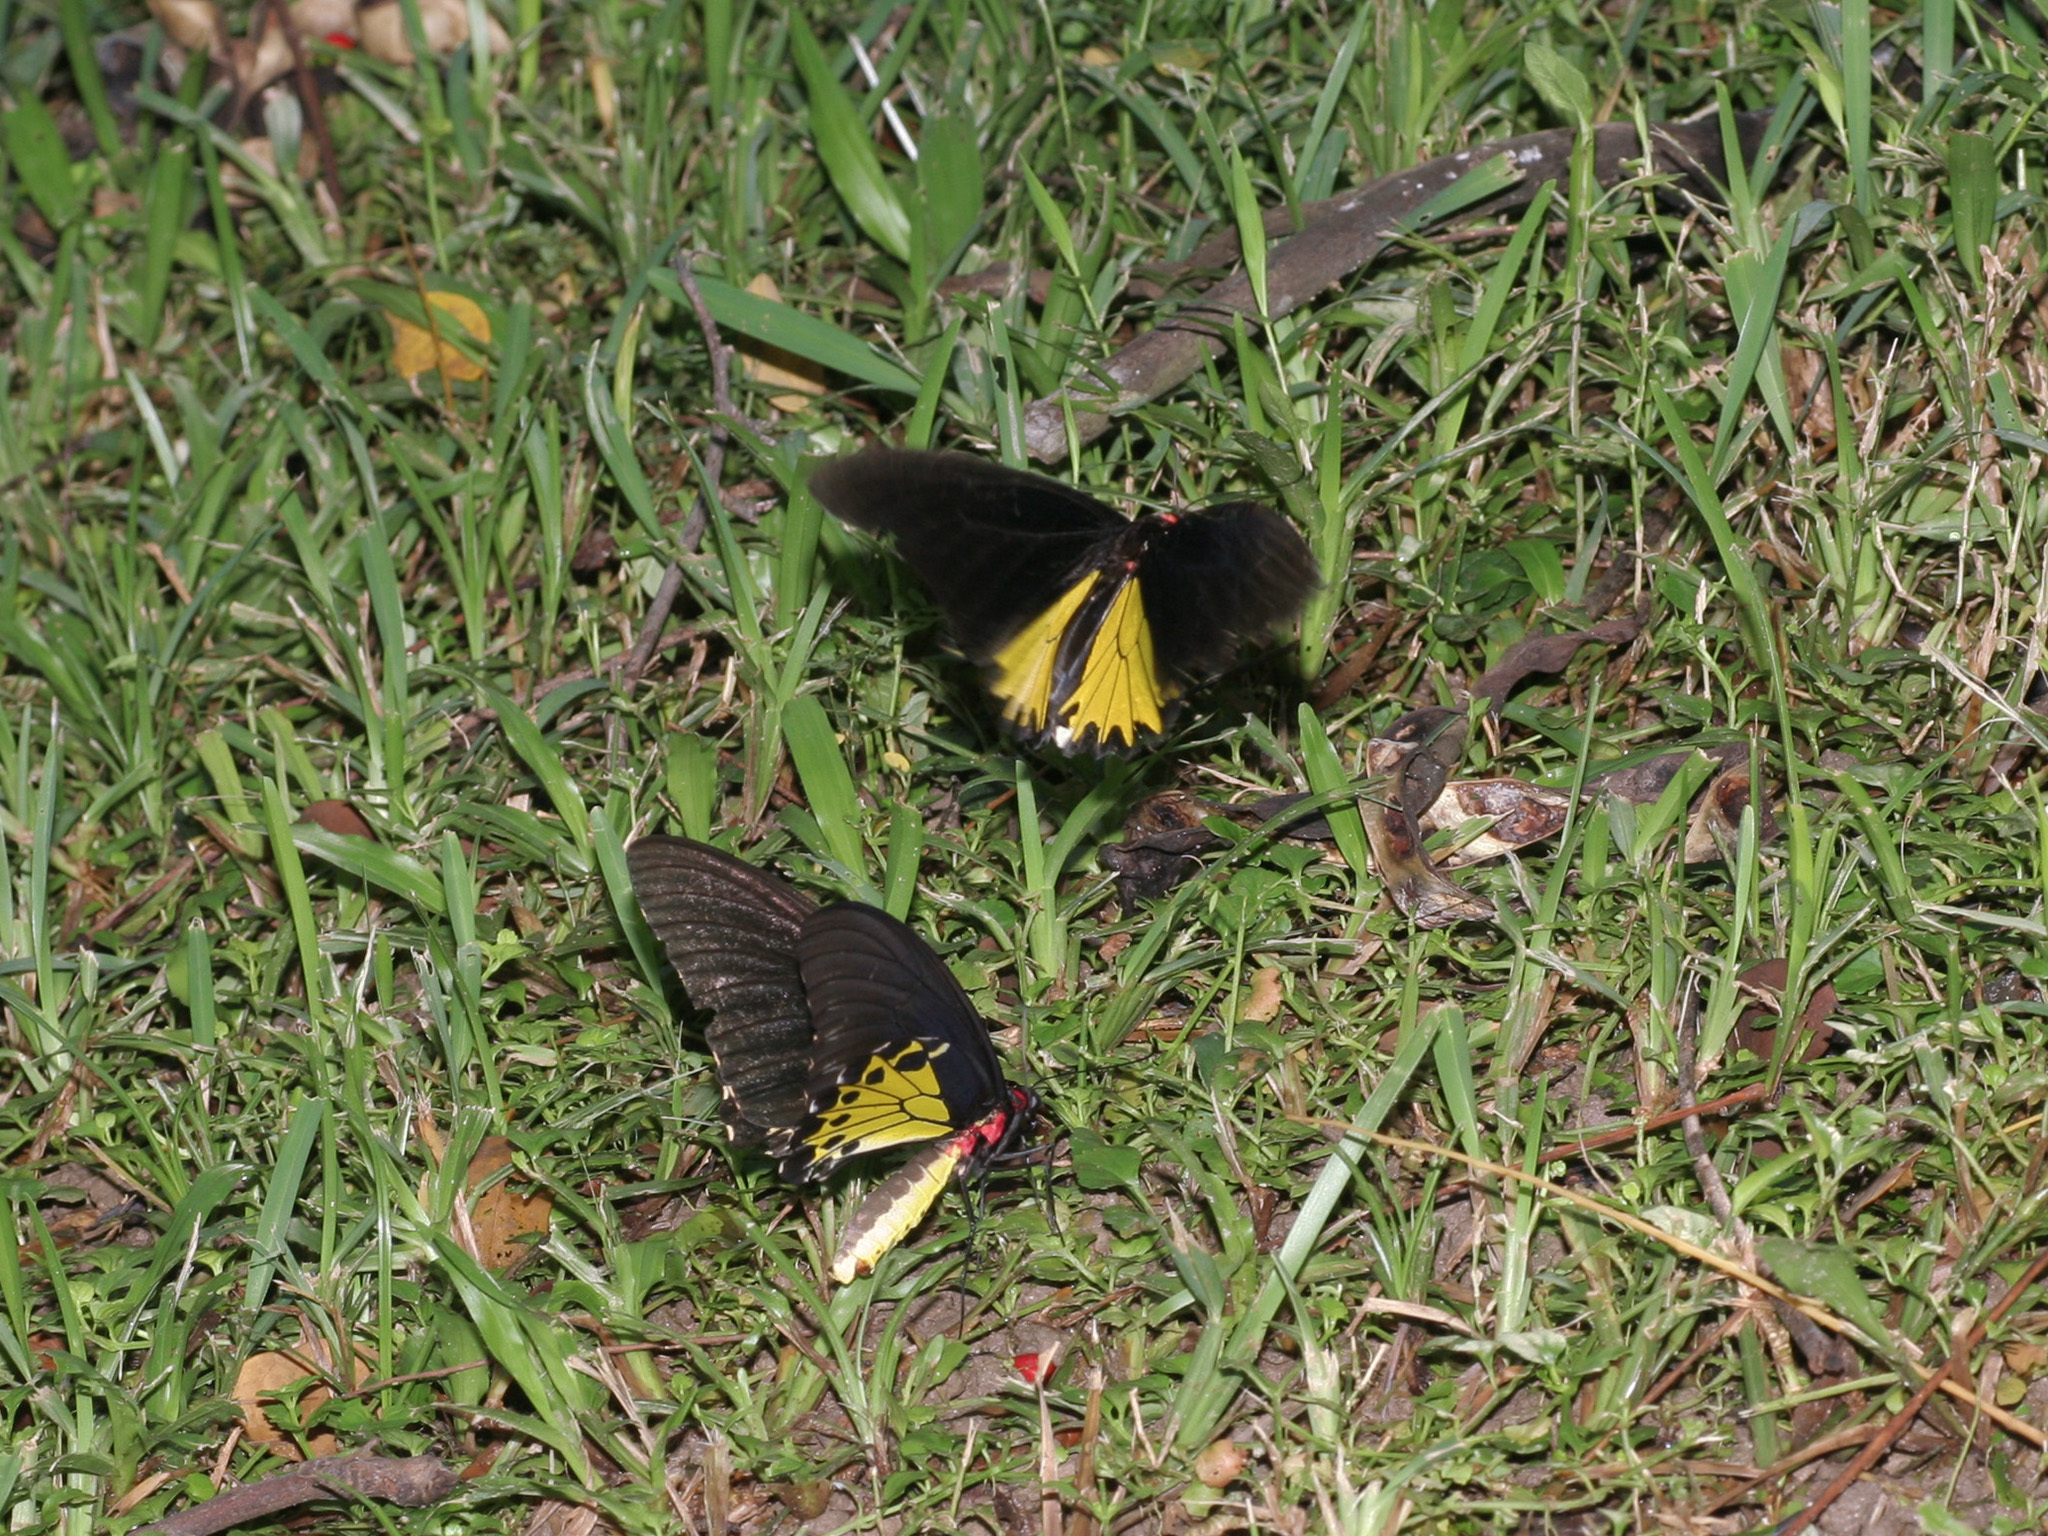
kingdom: Animalia
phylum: Arthropoda
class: Insecta
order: Lepidoptera
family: Papilionidae
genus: Troides
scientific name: Troides helena
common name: Common birdwing
